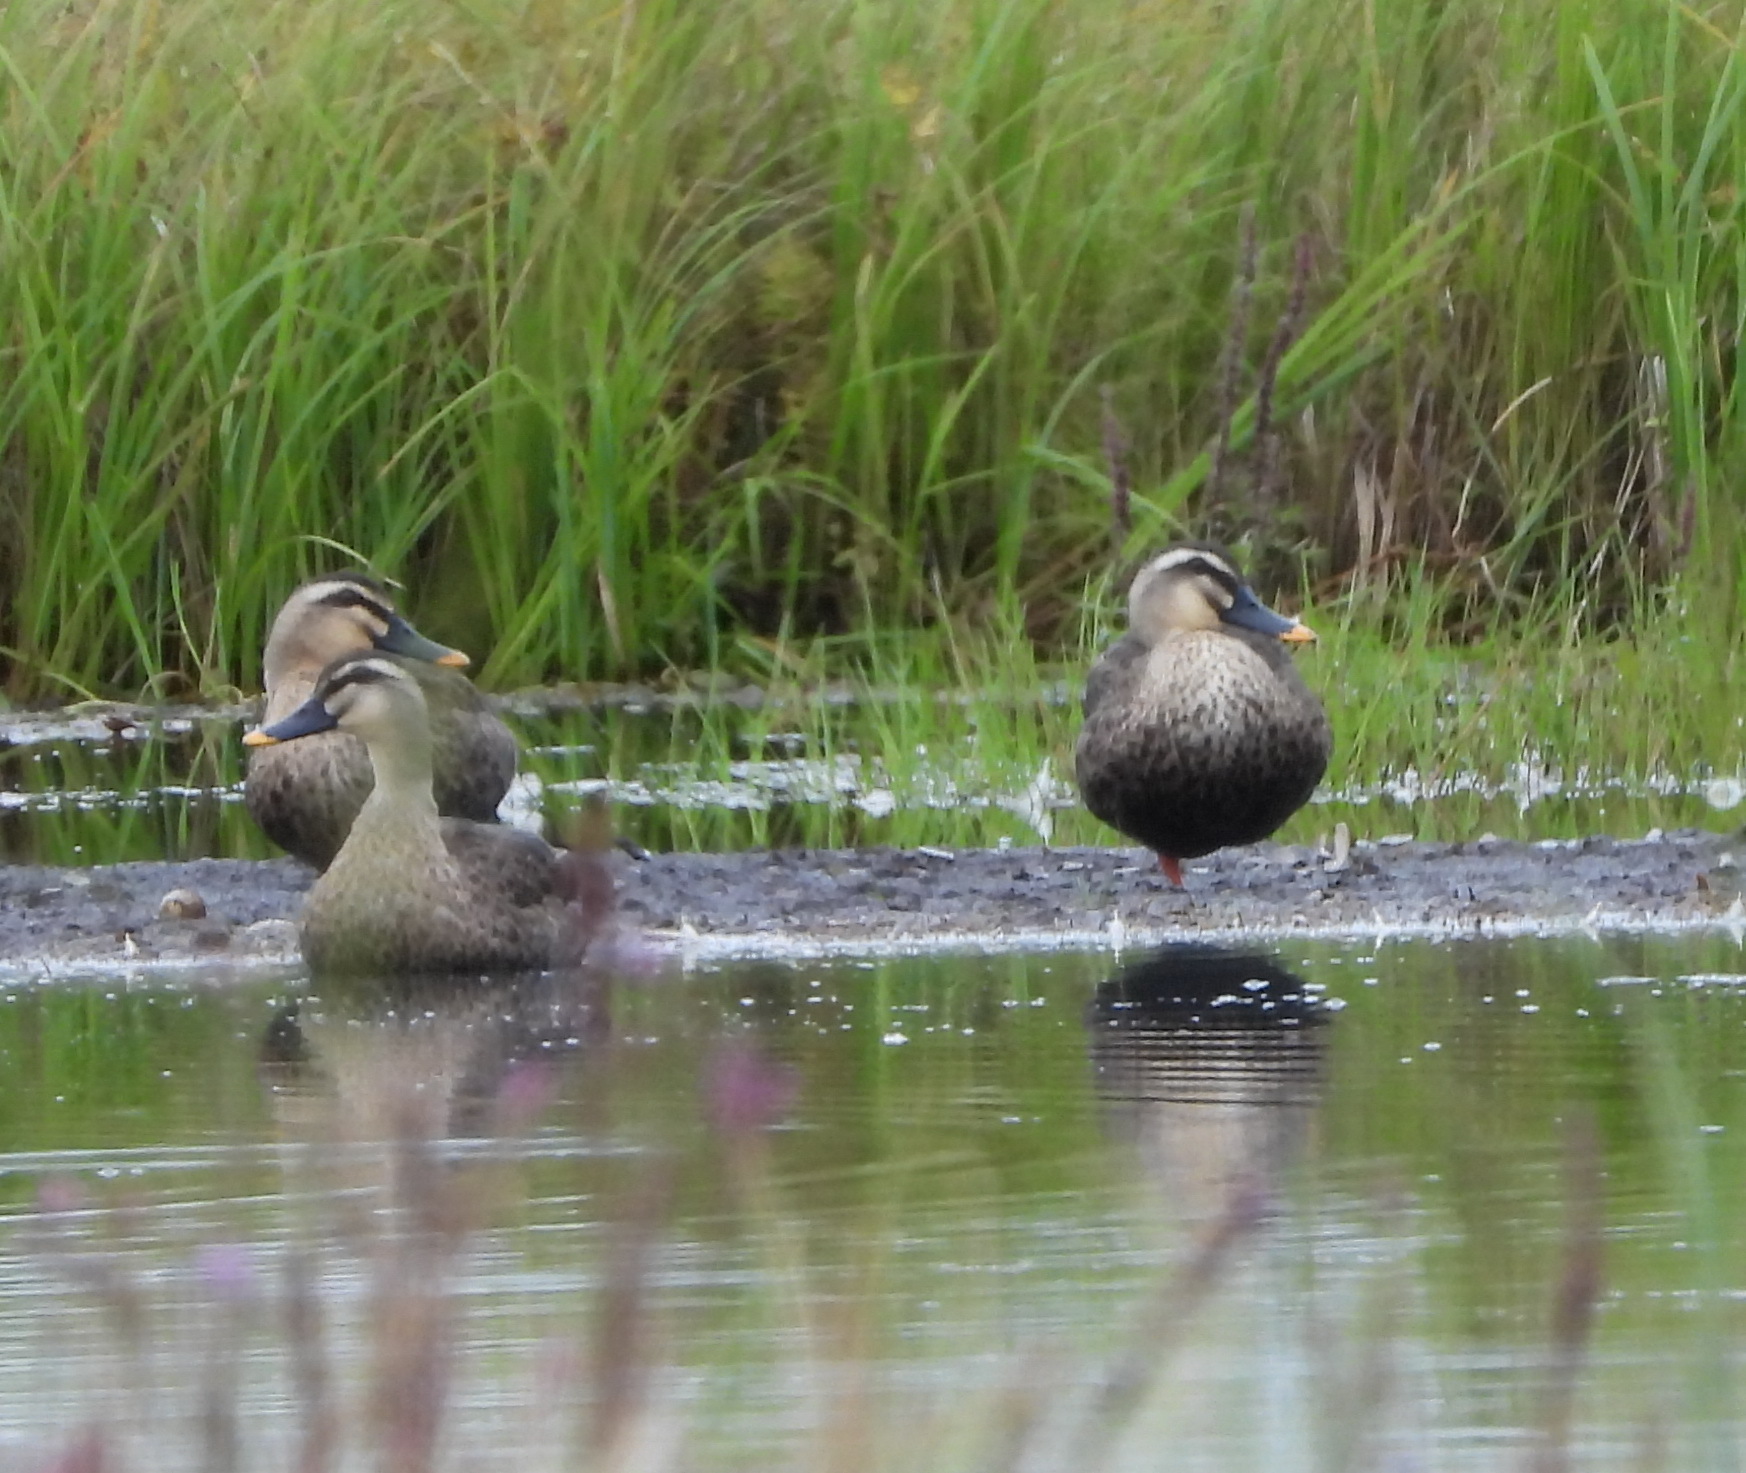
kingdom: Animalia
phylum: Chordata
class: Aves
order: Anseriformes
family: Anatidae
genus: Anas
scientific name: Anas zonorhyncha
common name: Eastern spot-billed duck
